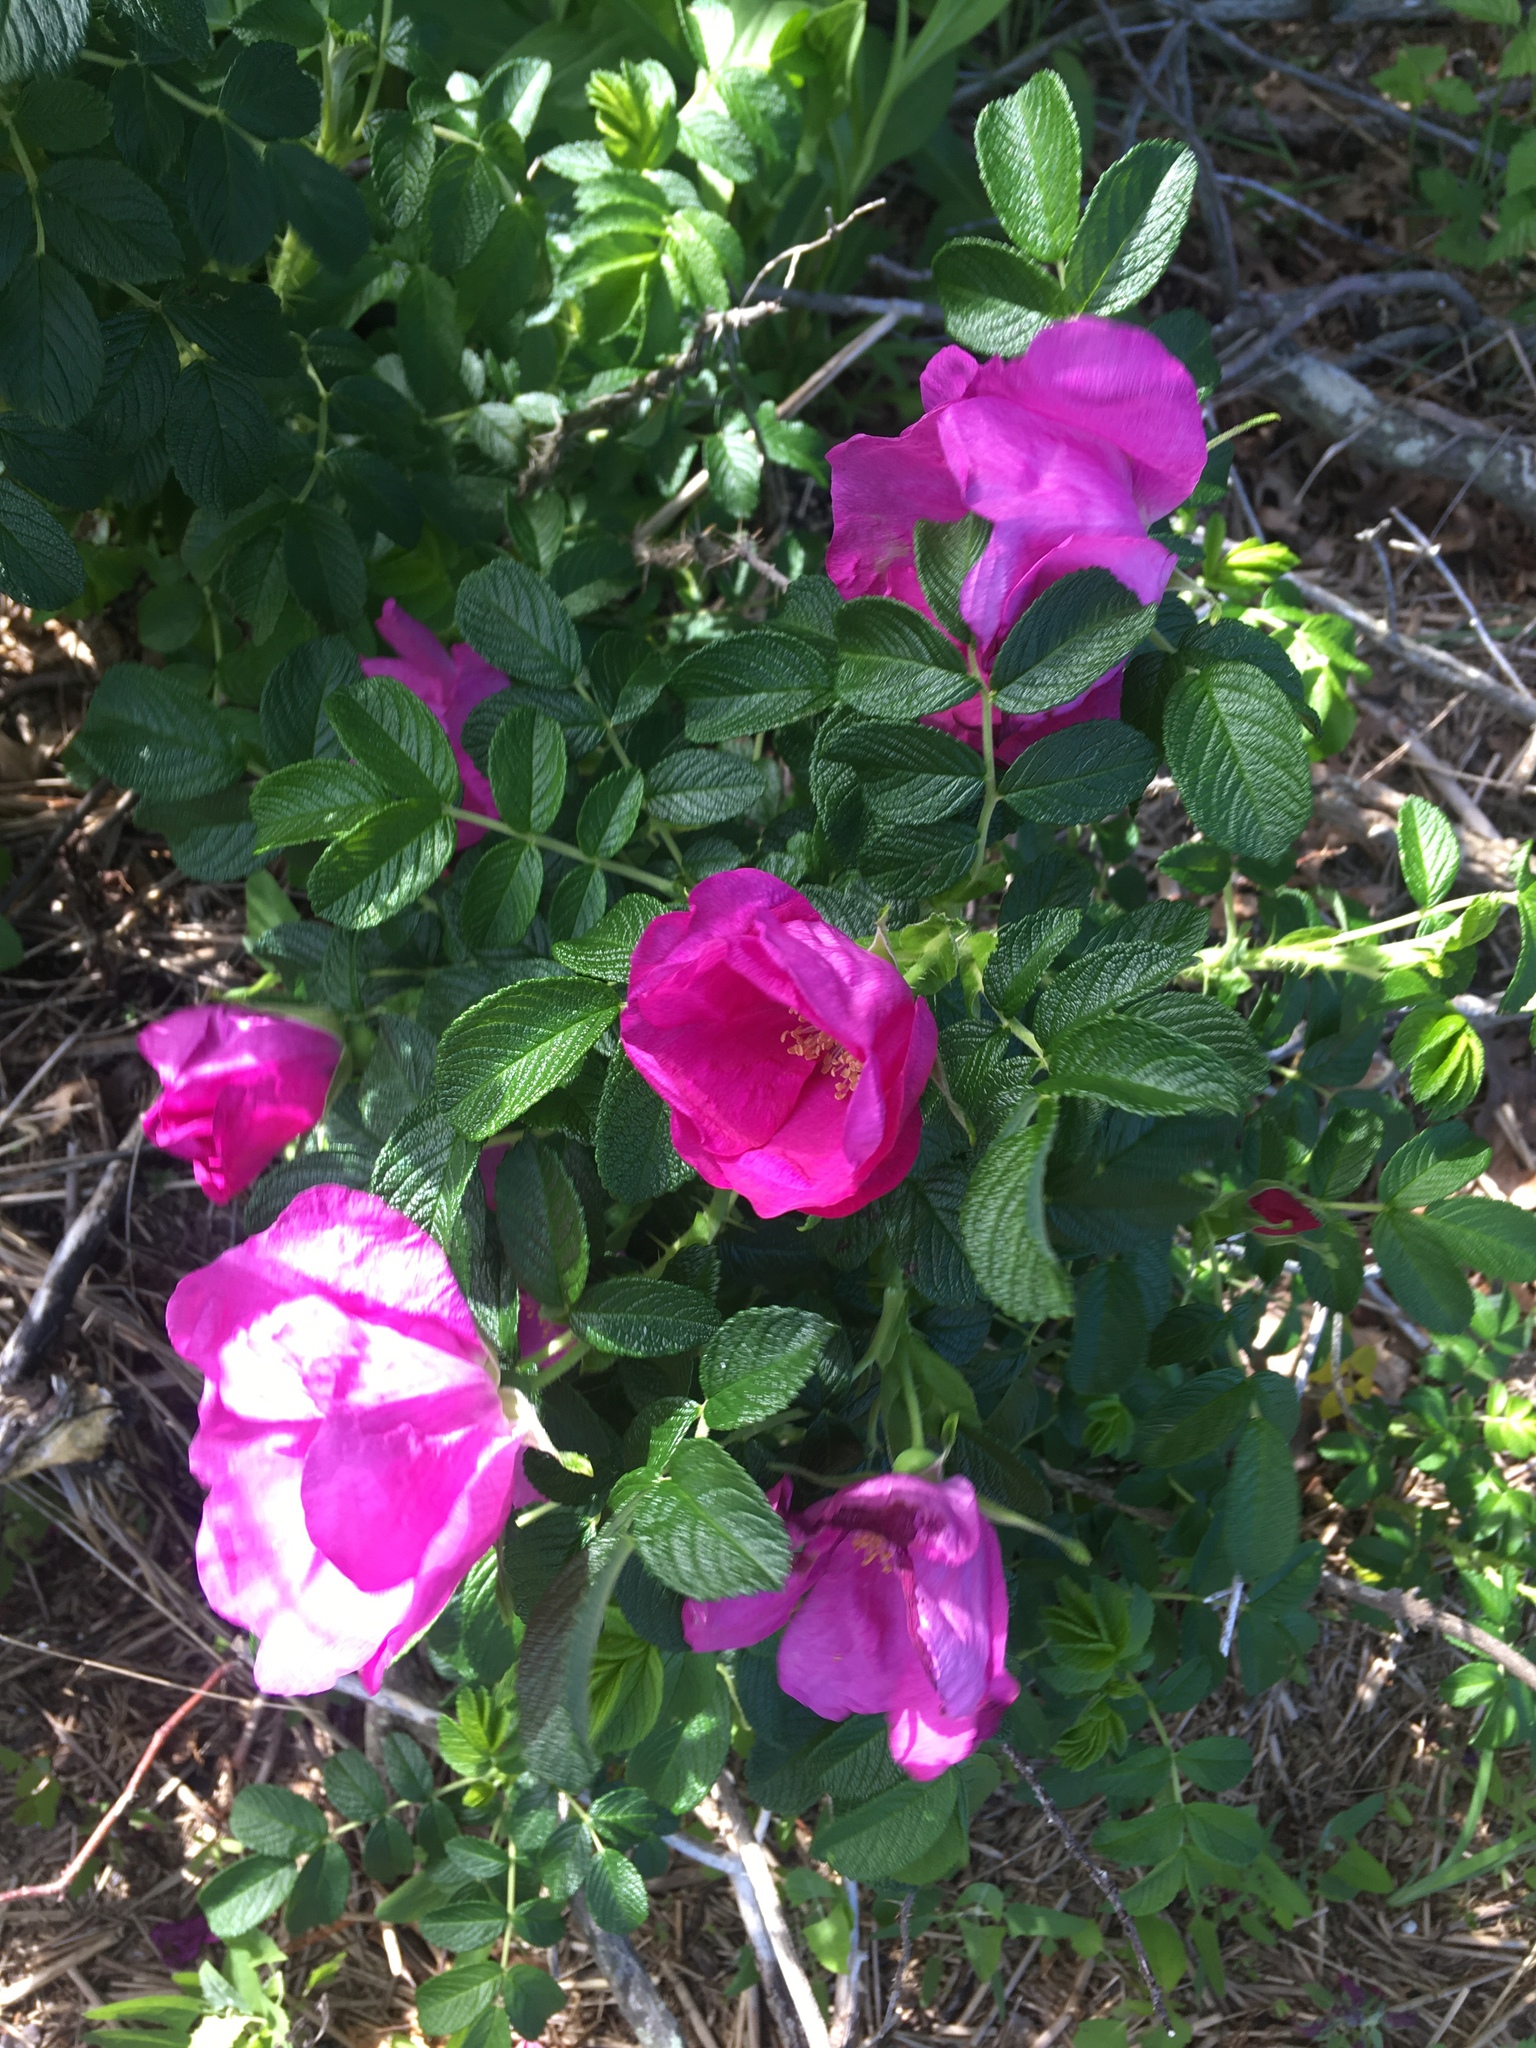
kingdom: Plantae
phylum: Tracheophyta
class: Magnoliopsida
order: Rosales
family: Rosaceae
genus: Rosa
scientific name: Rosa rugosa
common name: Japanese rose
